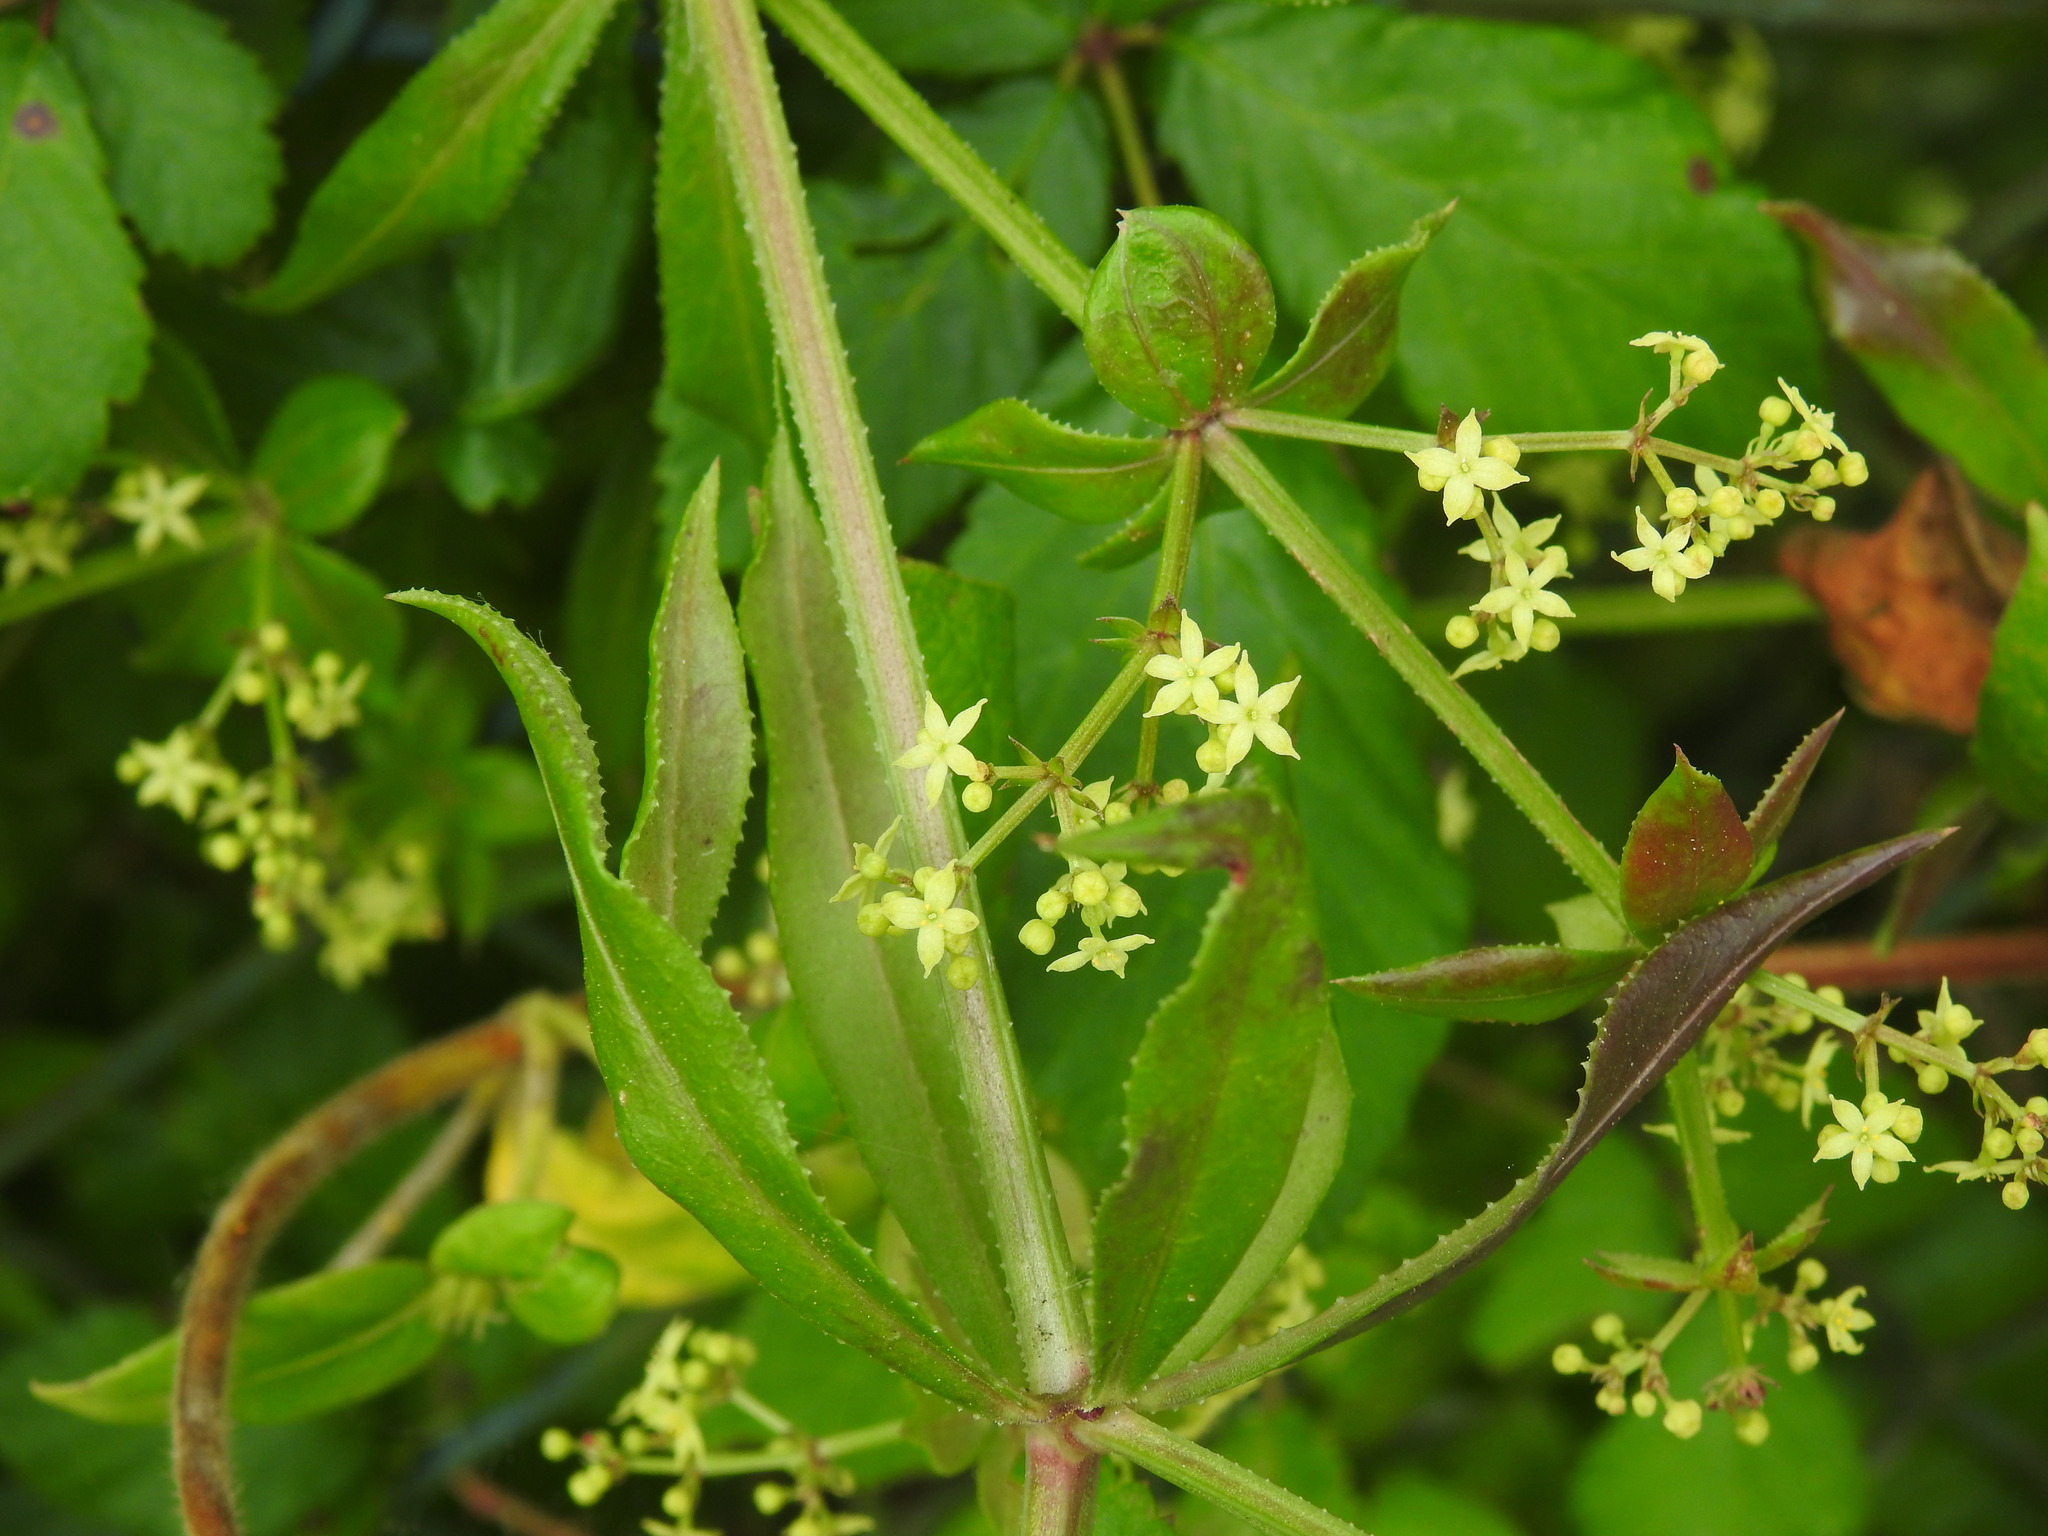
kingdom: Plantae
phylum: Tracheophyta
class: Magnoliopsida
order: Gentianales
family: Rubiaceae
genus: Rubia
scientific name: Rubia peregrina
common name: Wild madder
